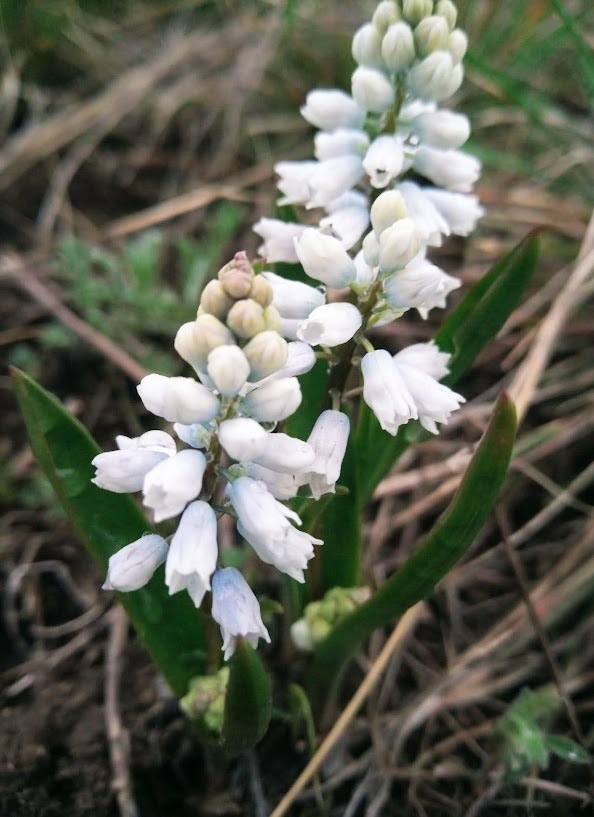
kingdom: Plantae
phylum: Tracheophyta
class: Liliopsida
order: Asparagales
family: Asparagaceae
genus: Hyacinthella
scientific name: Hyacinthella leucophaea
